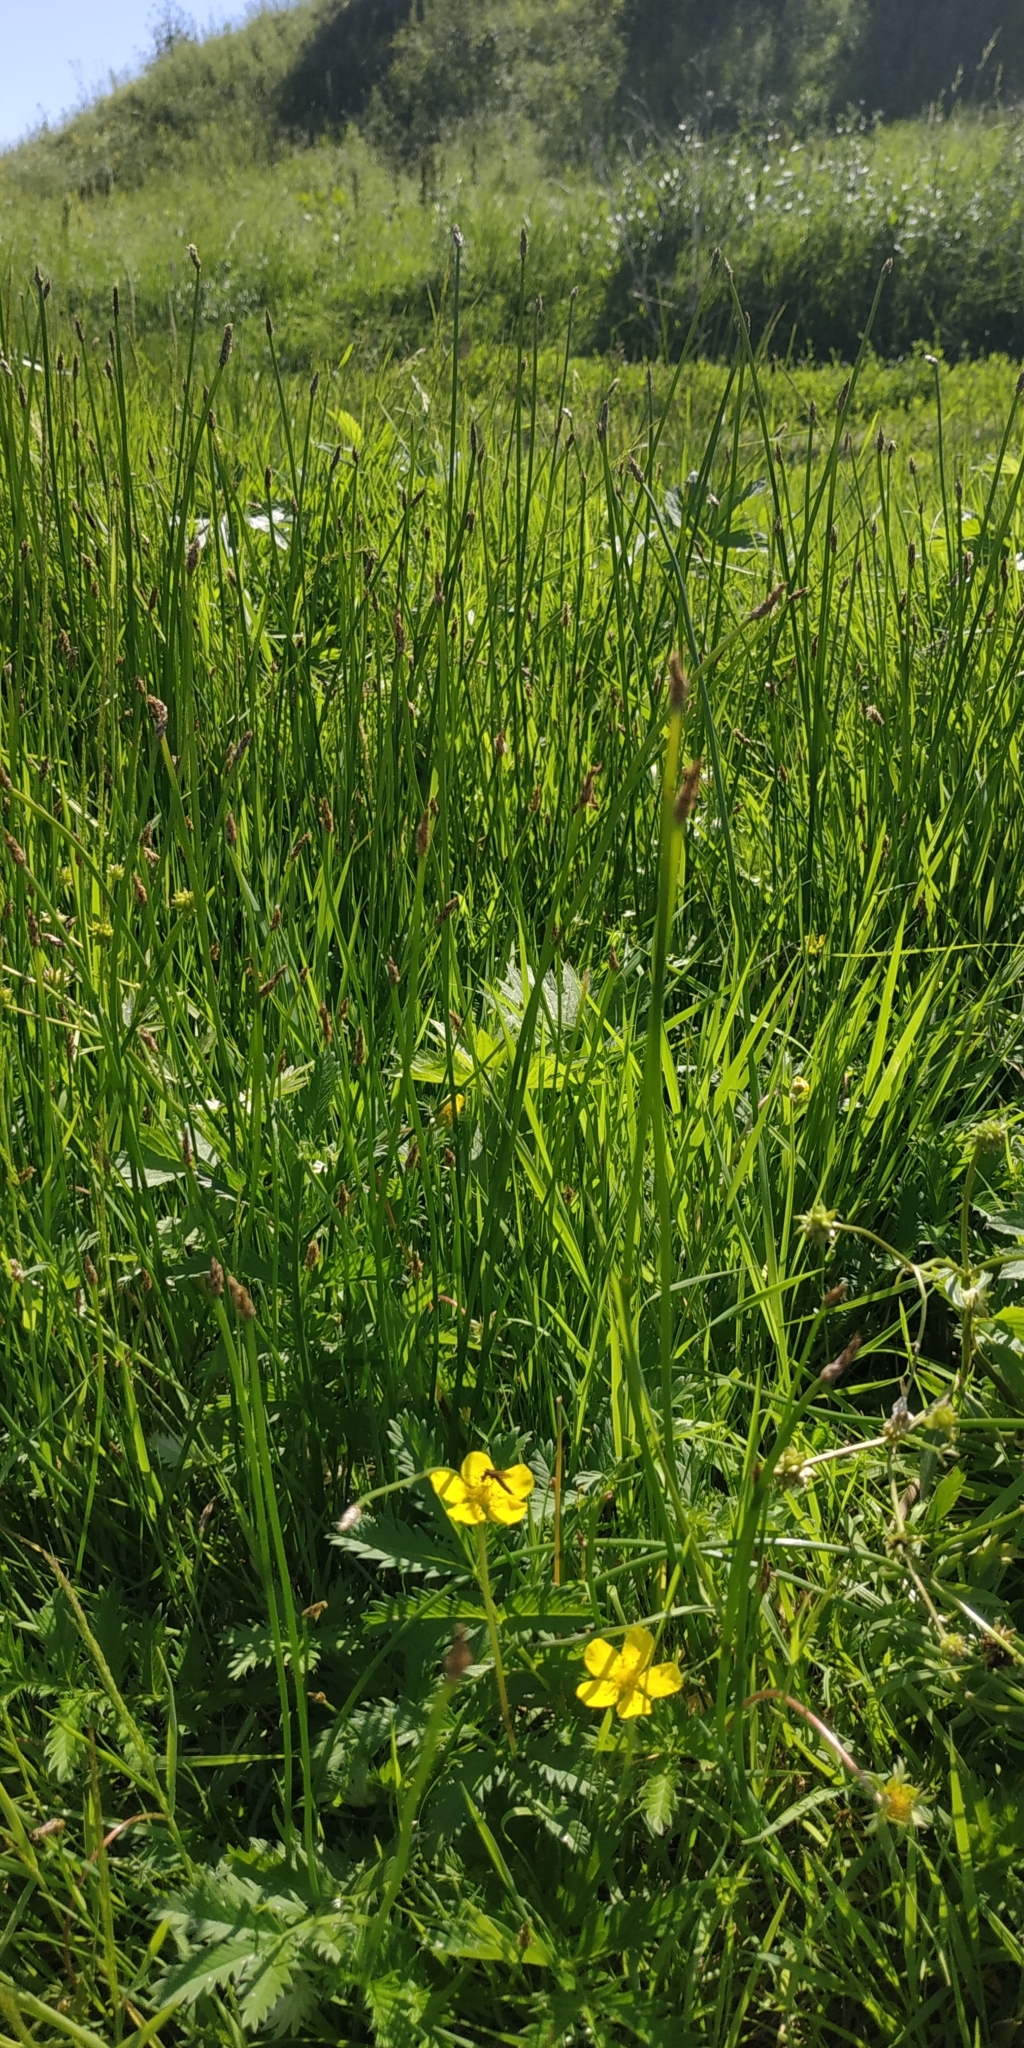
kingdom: Plantae
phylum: Tracheophyta
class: Liliopsida
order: Poales
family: Cyperaceae
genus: Eleocharis
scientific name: Eleocharis palustris
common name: Common spike-rush
